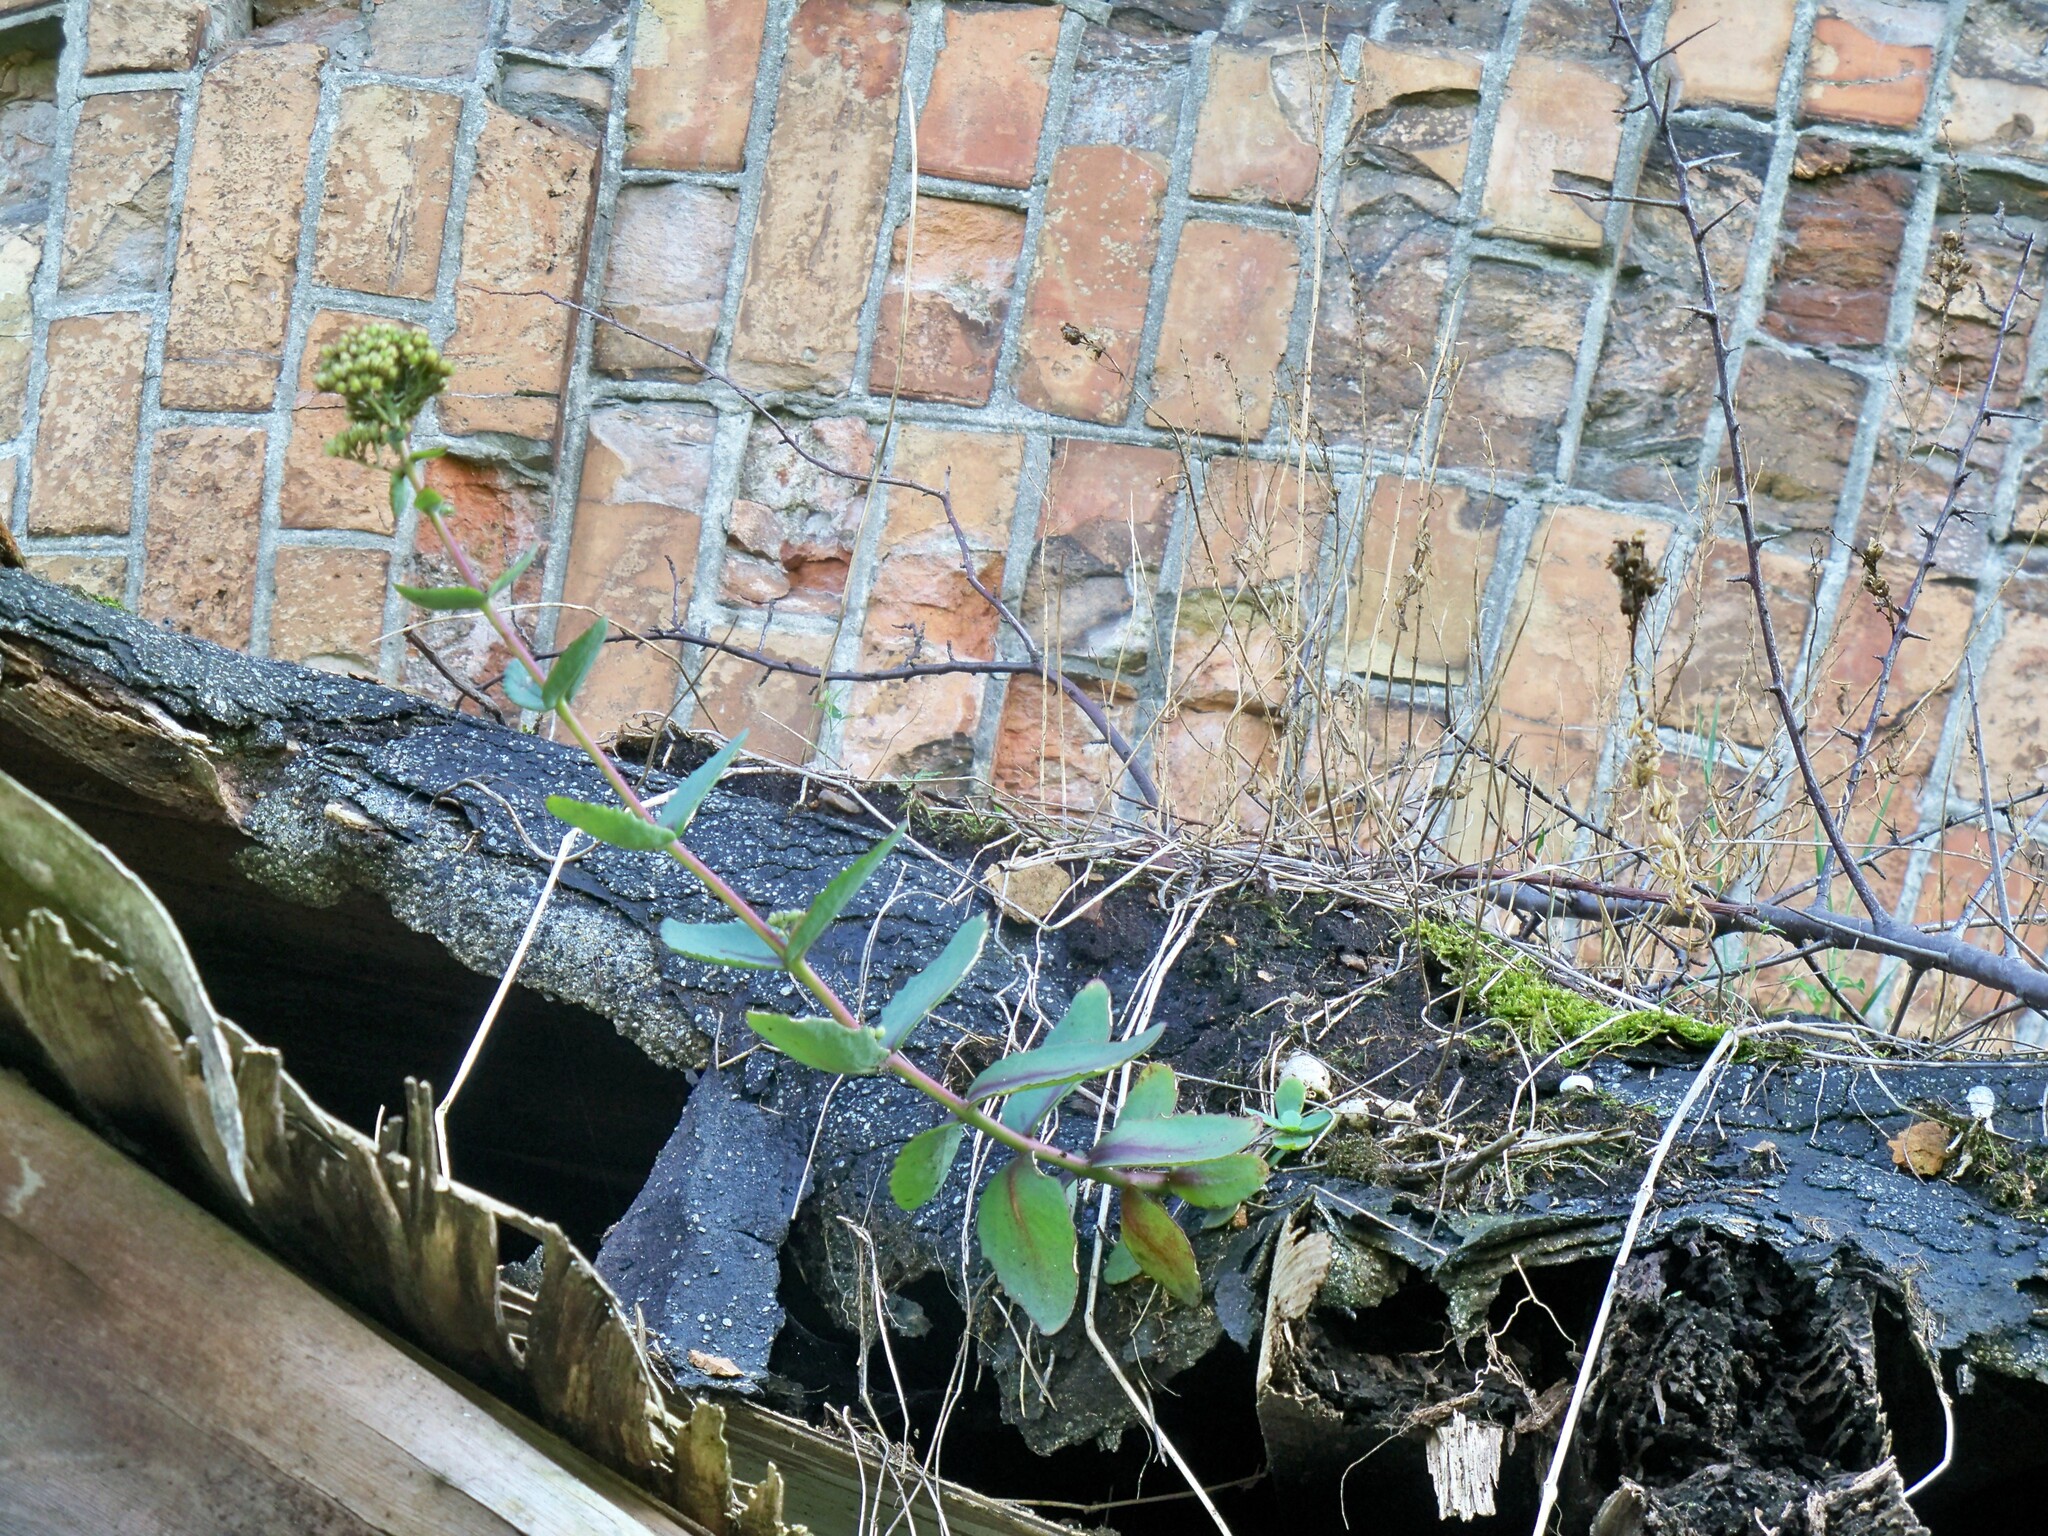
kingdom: Plantae
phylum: Tracheophyta
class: Magnoliopsida
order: Saxifragales
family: Crassulaceae
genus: Hylotelephium
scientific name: Hylotelephium maximum
